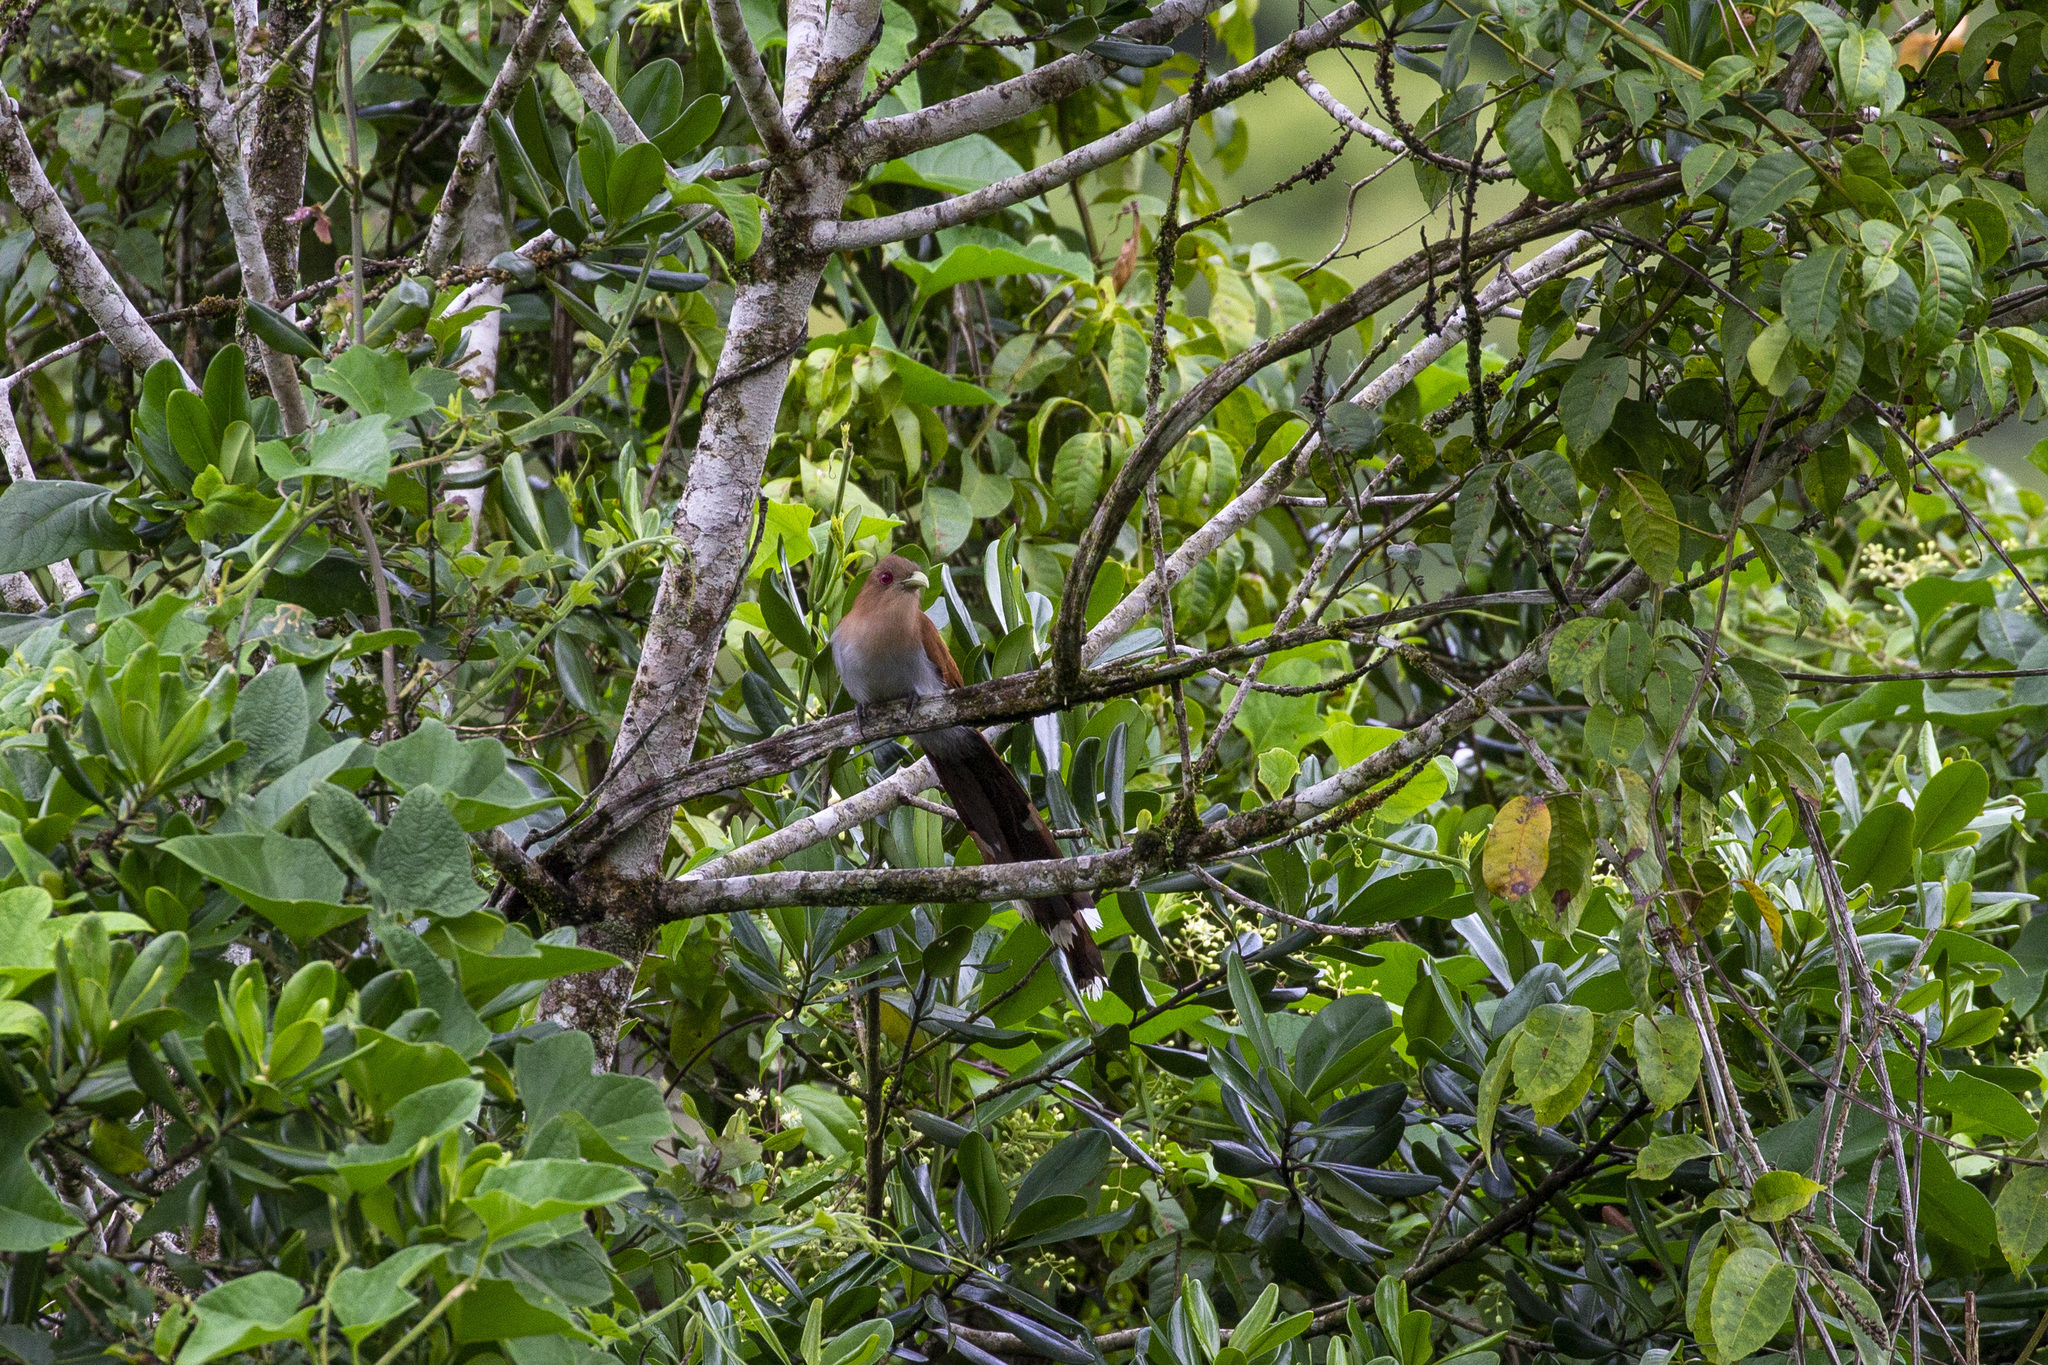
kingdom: Animalia
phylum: Chordata
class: Aves
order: Cuculiformes
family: Cuculidae
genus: Piaya
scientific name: Piaya cayana
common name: Squirrel cuckoo
